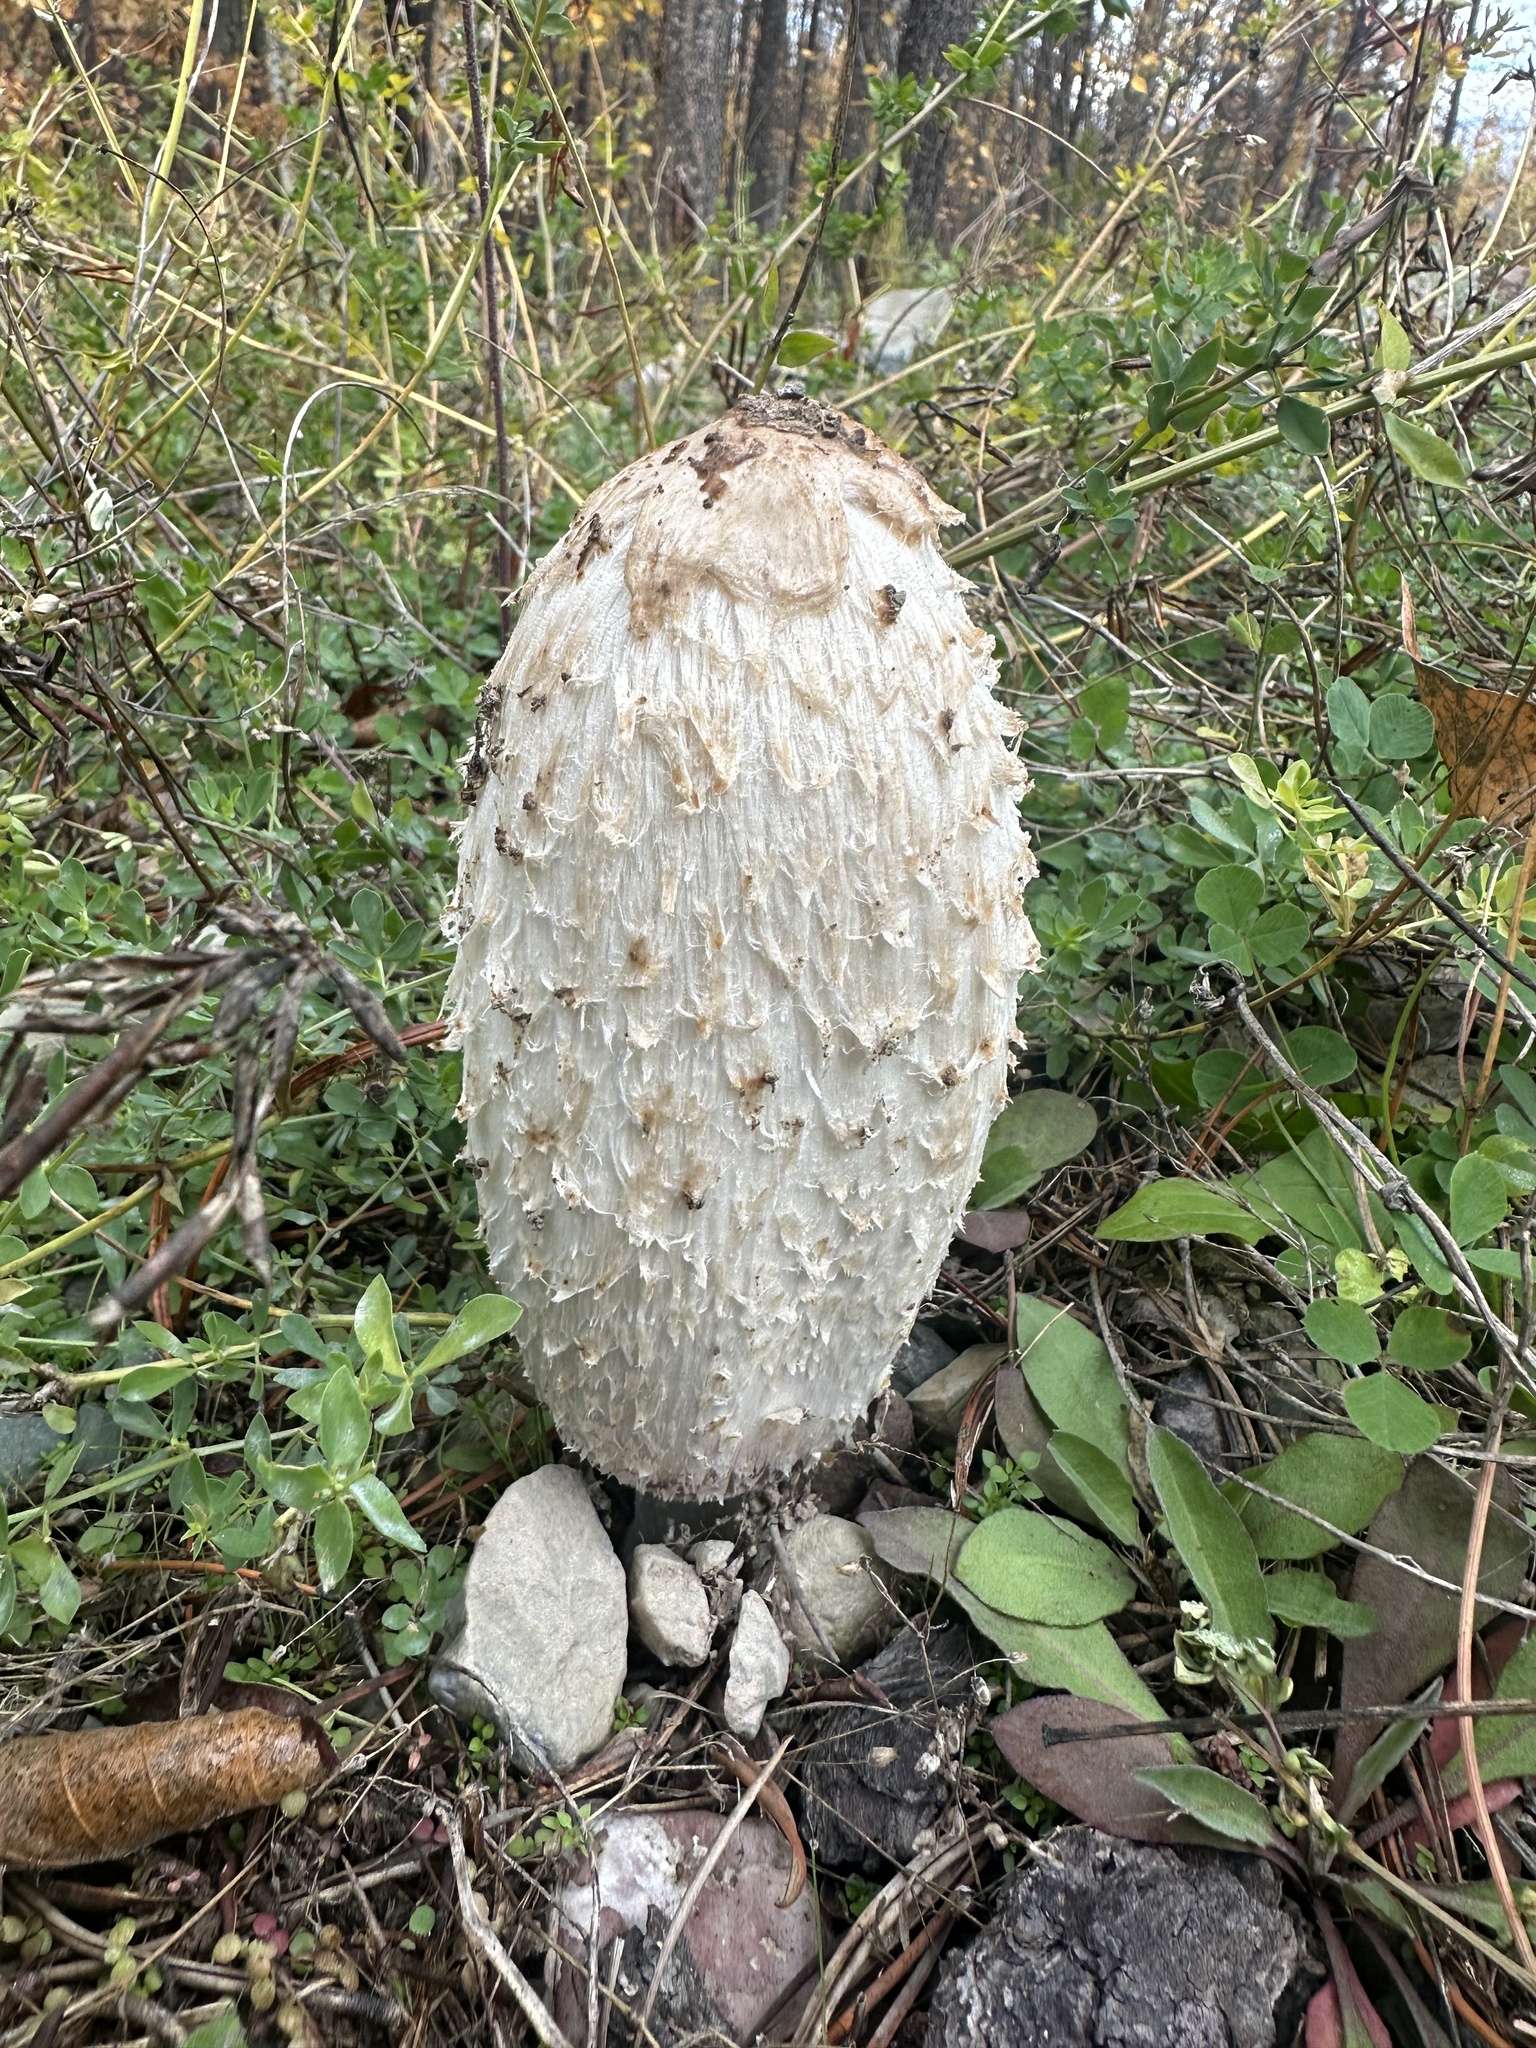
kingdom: Fungi
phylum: Basidiomycota
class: Agaricomycetes
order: Agaricales
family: Agaricaceae
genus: Coprinus
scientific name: Coprinus comatus
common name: Lawyer's wig
